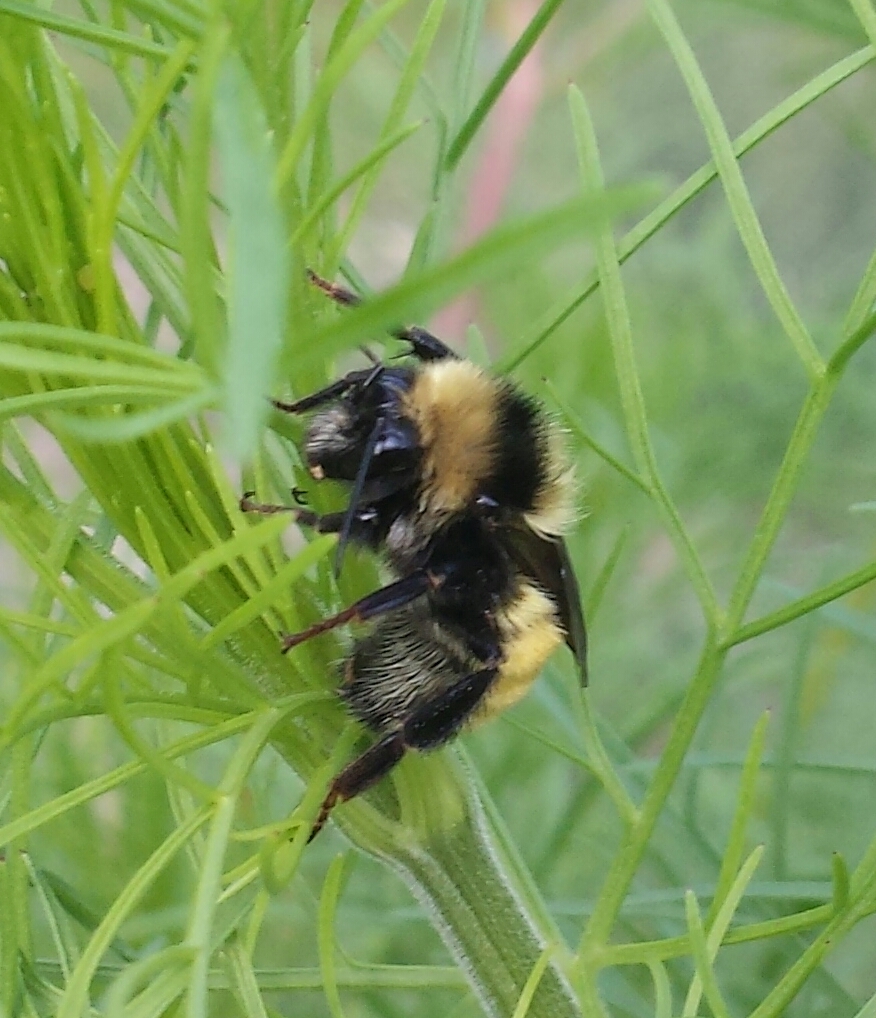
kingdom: Animalia
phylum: Arthropoda
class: Insecta
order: Hymenoptera
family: Apidae
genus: Bombus
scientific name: Bombus borealis
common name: Northern amber bumble bee
